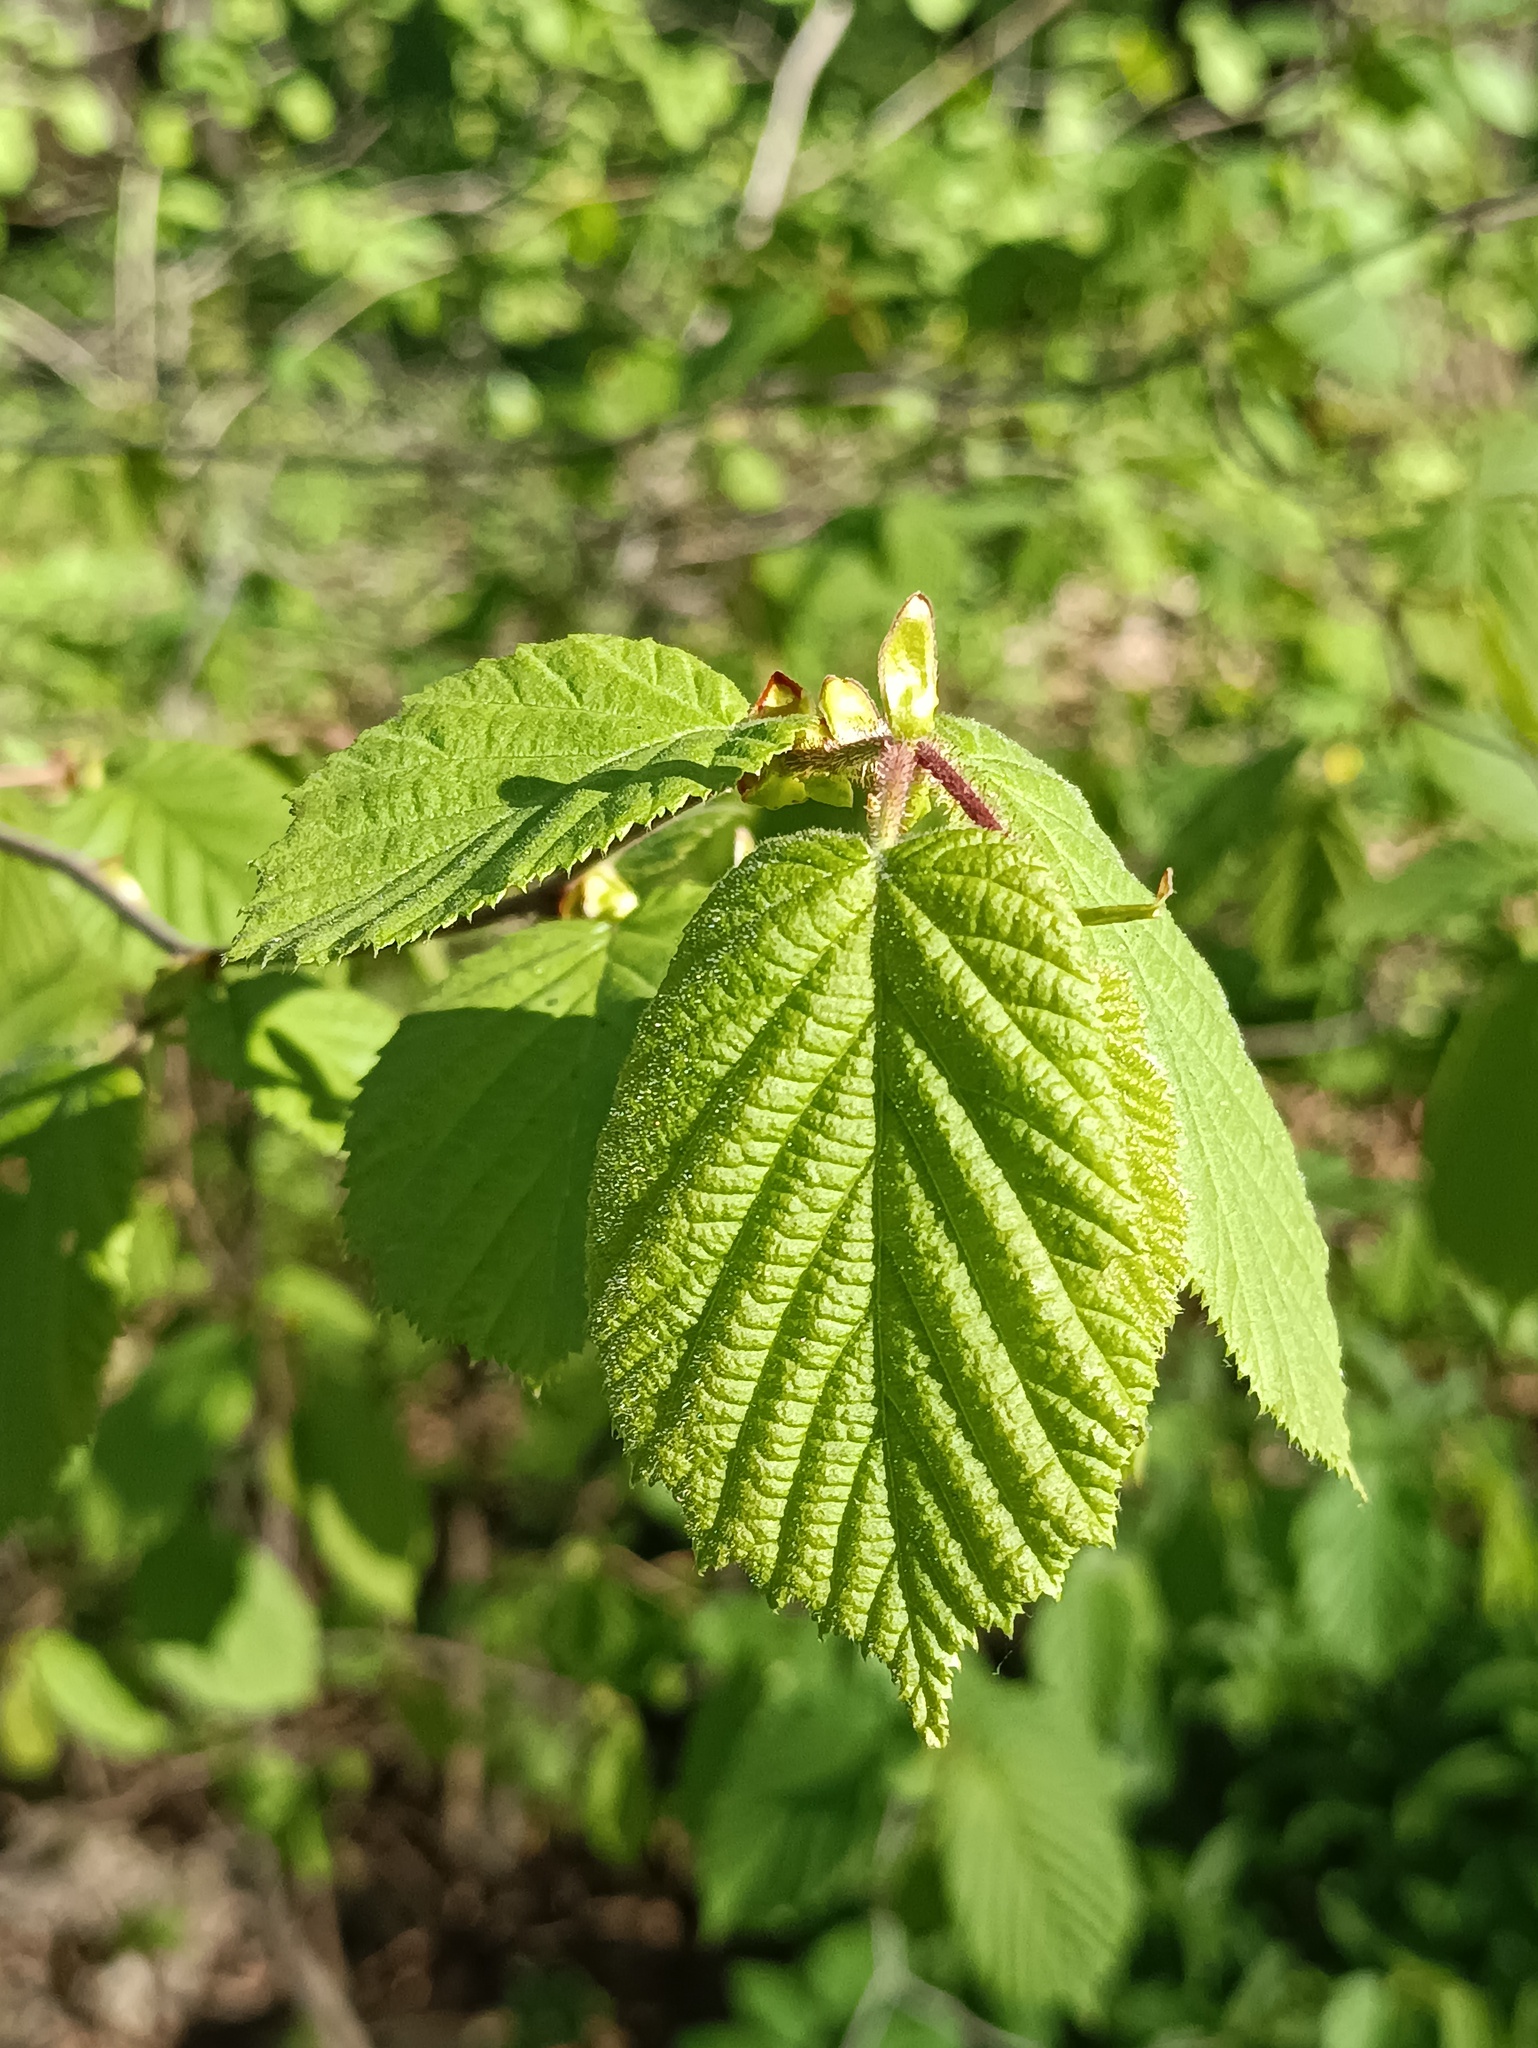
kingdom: Plantae
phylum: Tracheophyta
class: Magnoliopsida
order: Fagales
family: Betulaceae
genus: Corylus
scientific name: Corylus avellana
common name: European hazel
